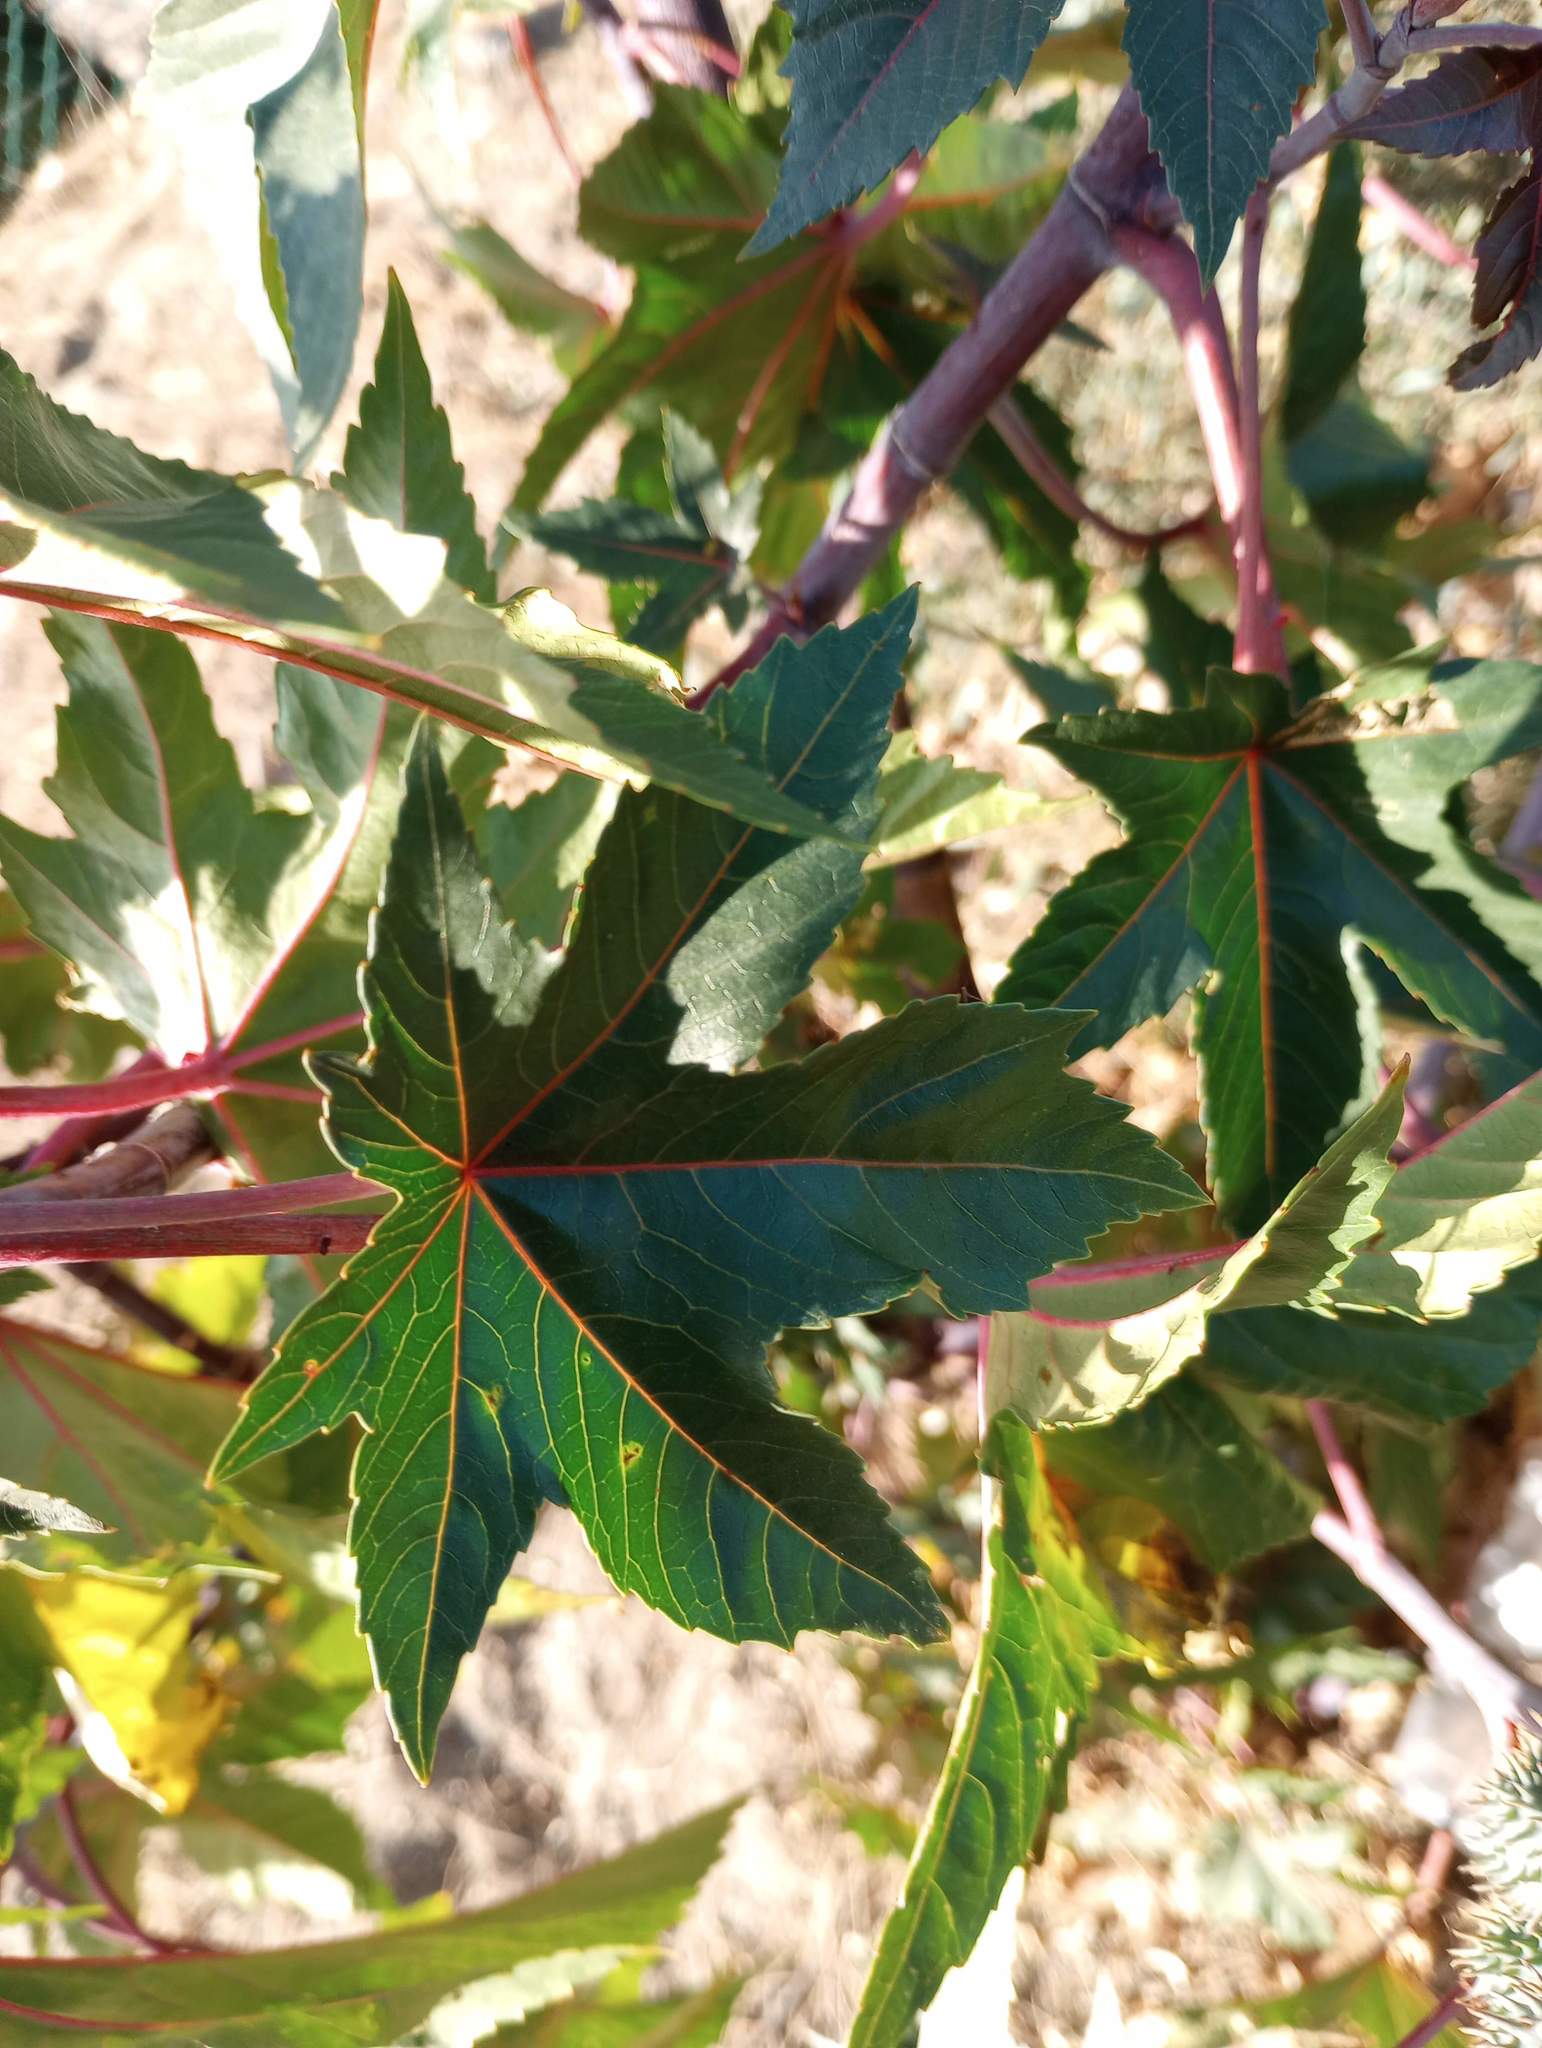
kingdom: Plantae
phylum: Tracheophyta
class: Magnoliopsida
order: Malpighiales
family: Euphorbiaceae
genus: Ricinus
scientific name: Ricinus communis
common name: Castor-oil-plant
